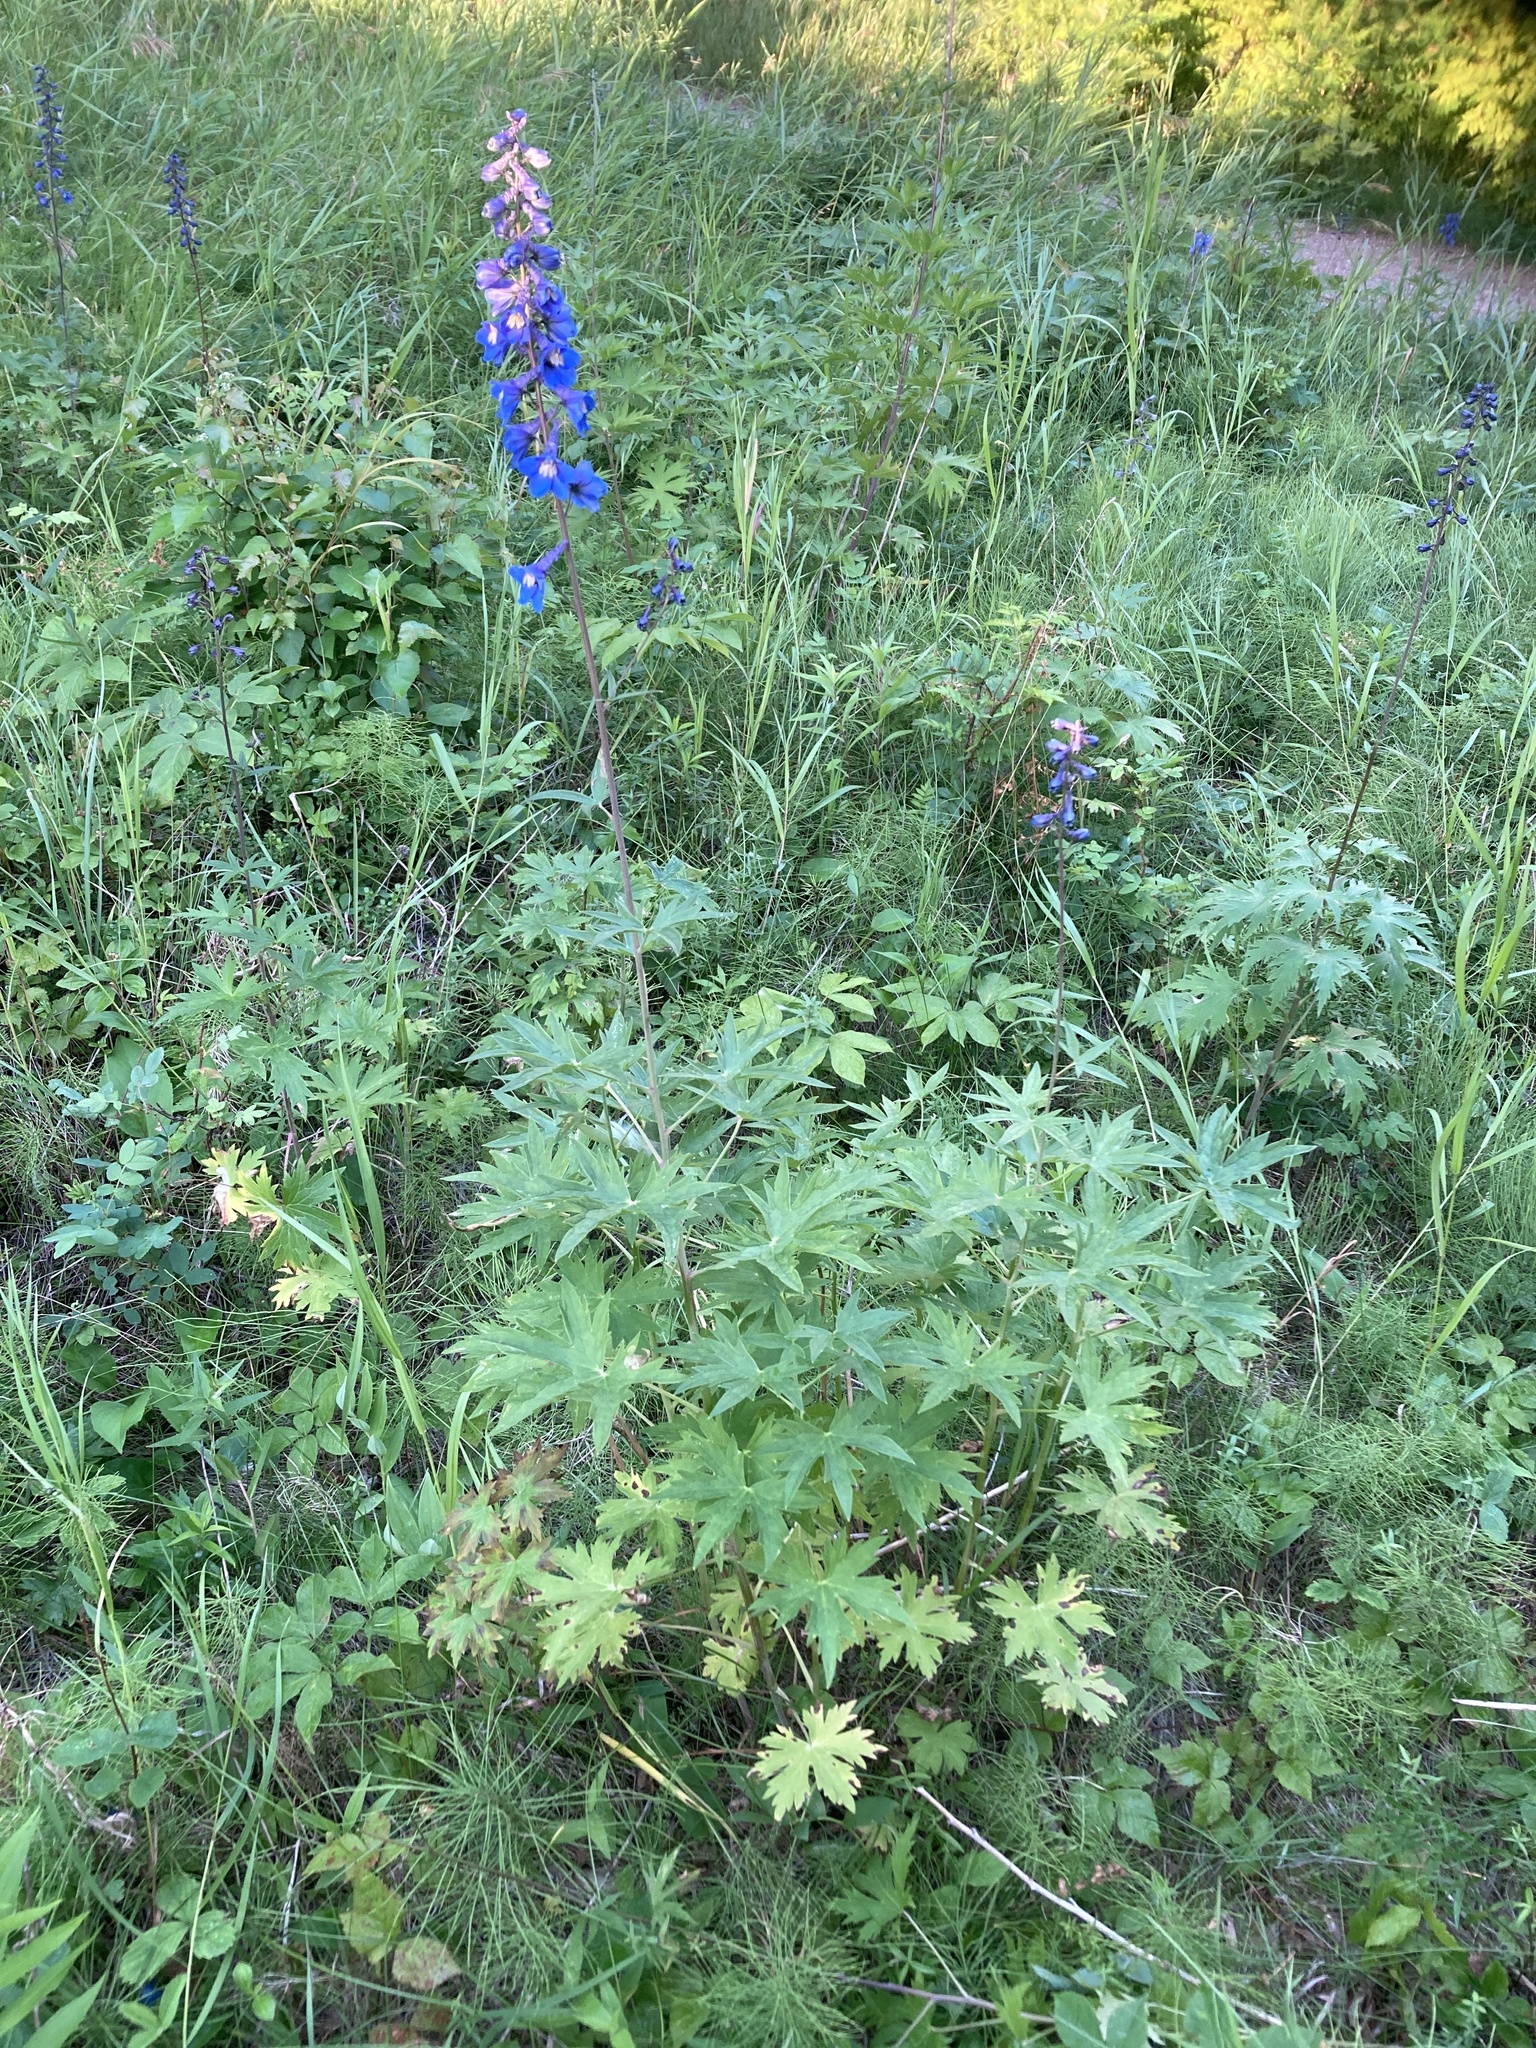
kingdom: Plantae
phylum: Tracheophyta
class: Magnoliopsida
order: Ranunculales
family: Ranunculaceae
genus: Delphinium
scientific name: Delphinium cultorum
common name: Garden delphinium
